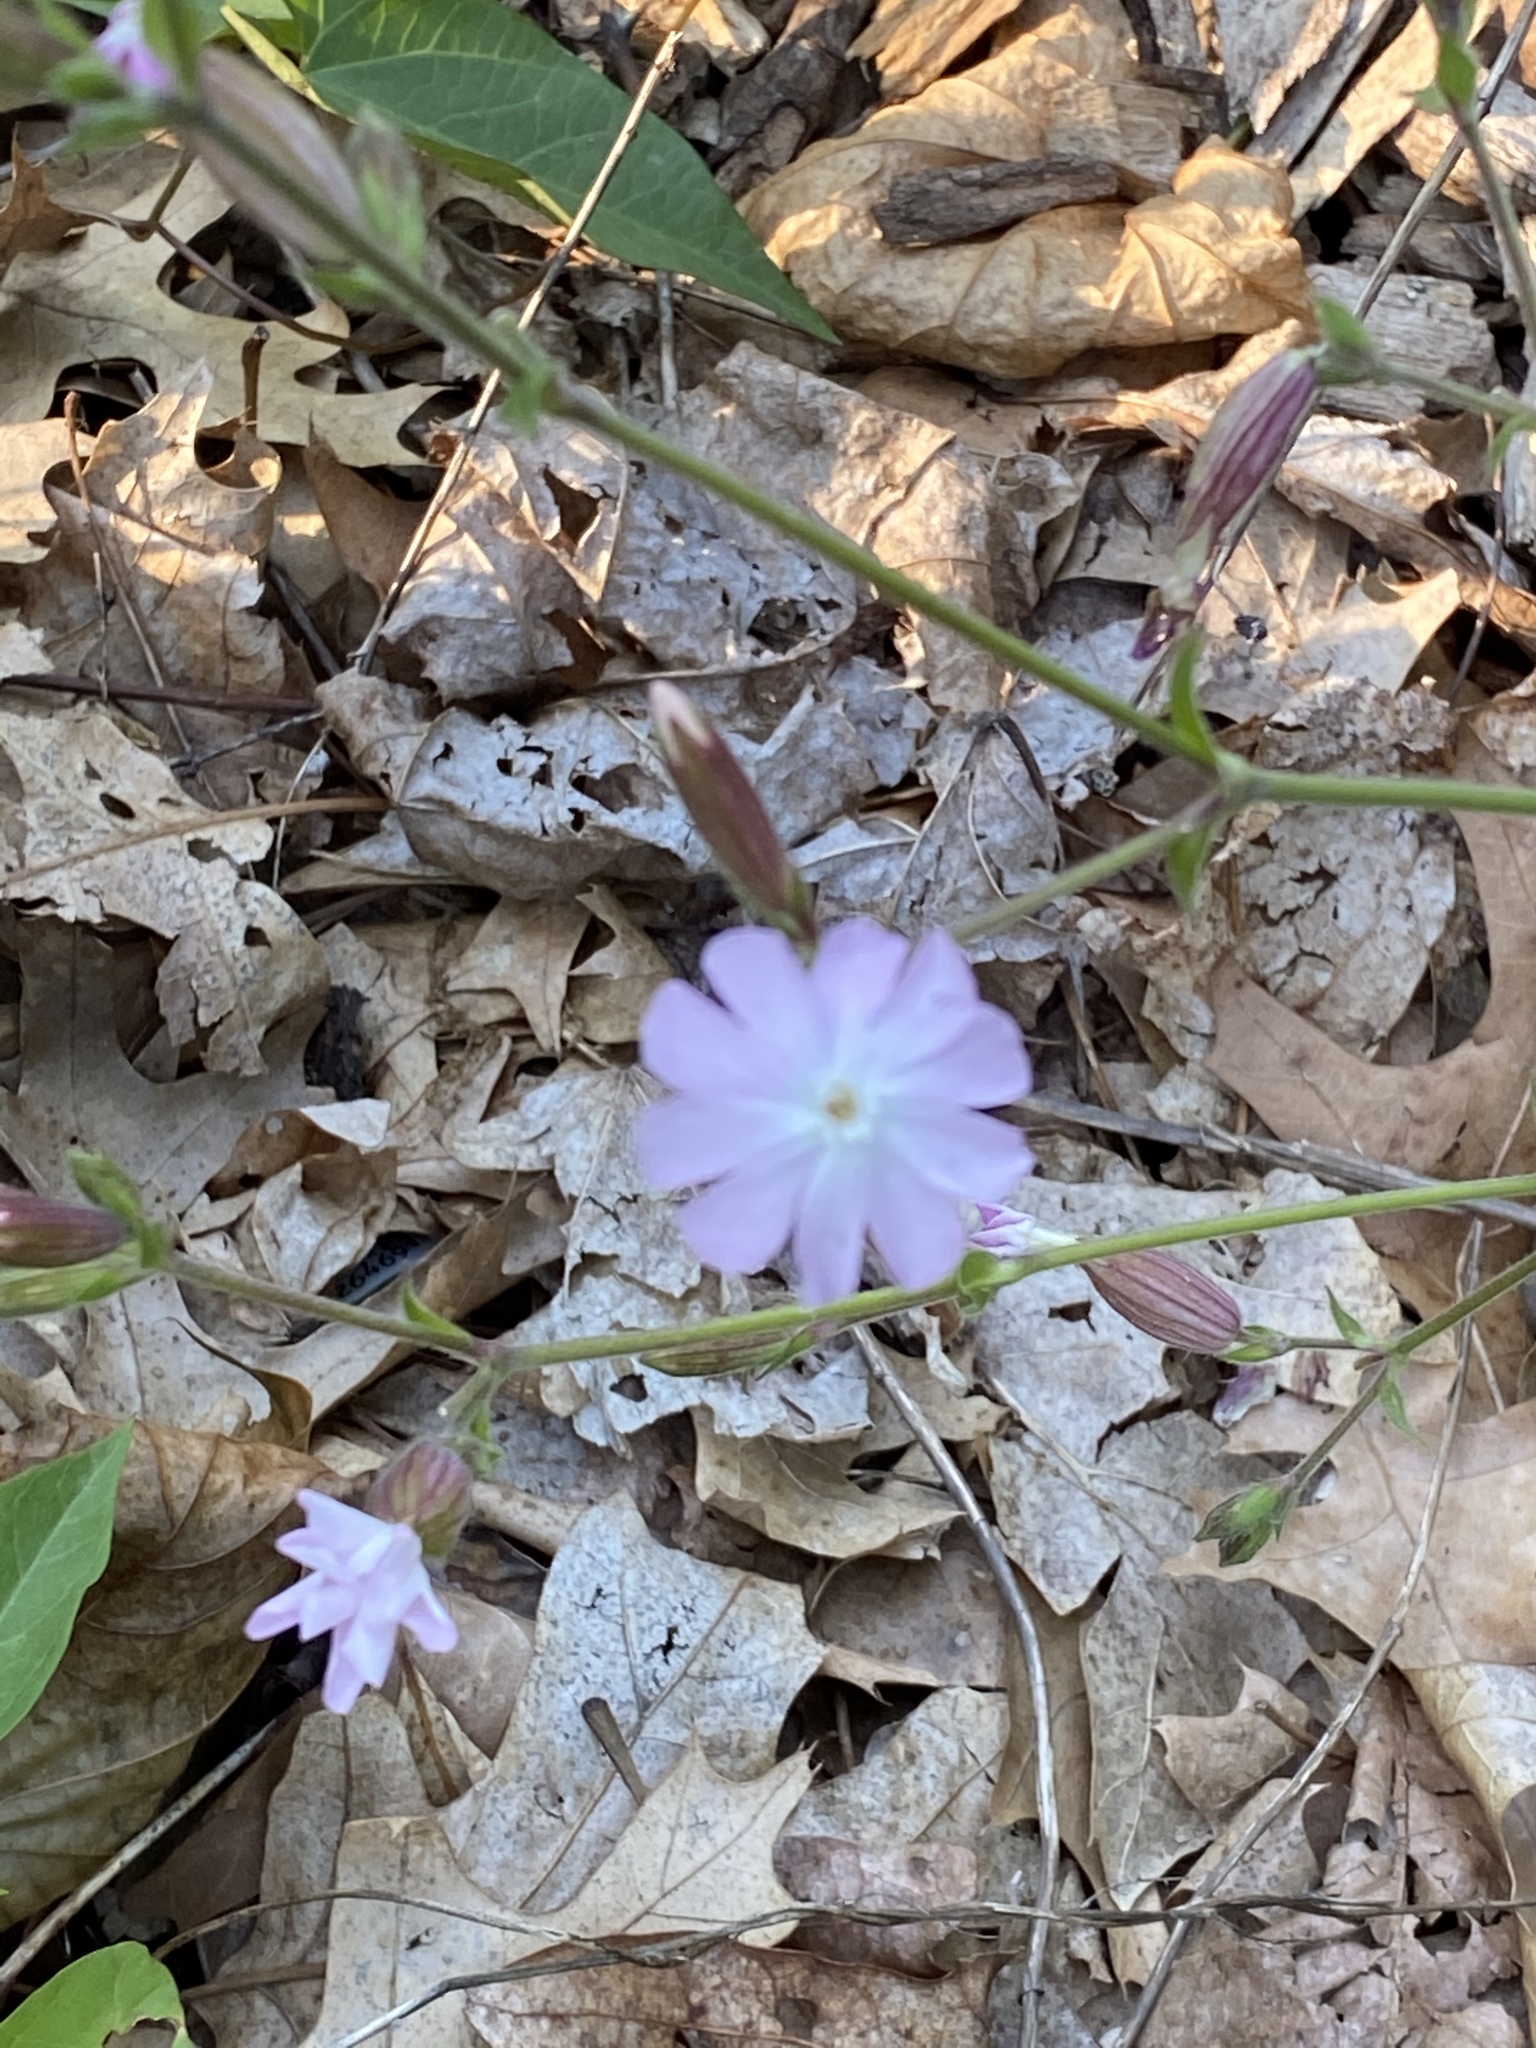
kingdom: Plantae
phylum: Tracheophyta
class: Magnoliopsida
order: Caryophyllales
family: Caryophyllaceae
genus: Silene
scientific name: Silene latifolia
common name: White campion
